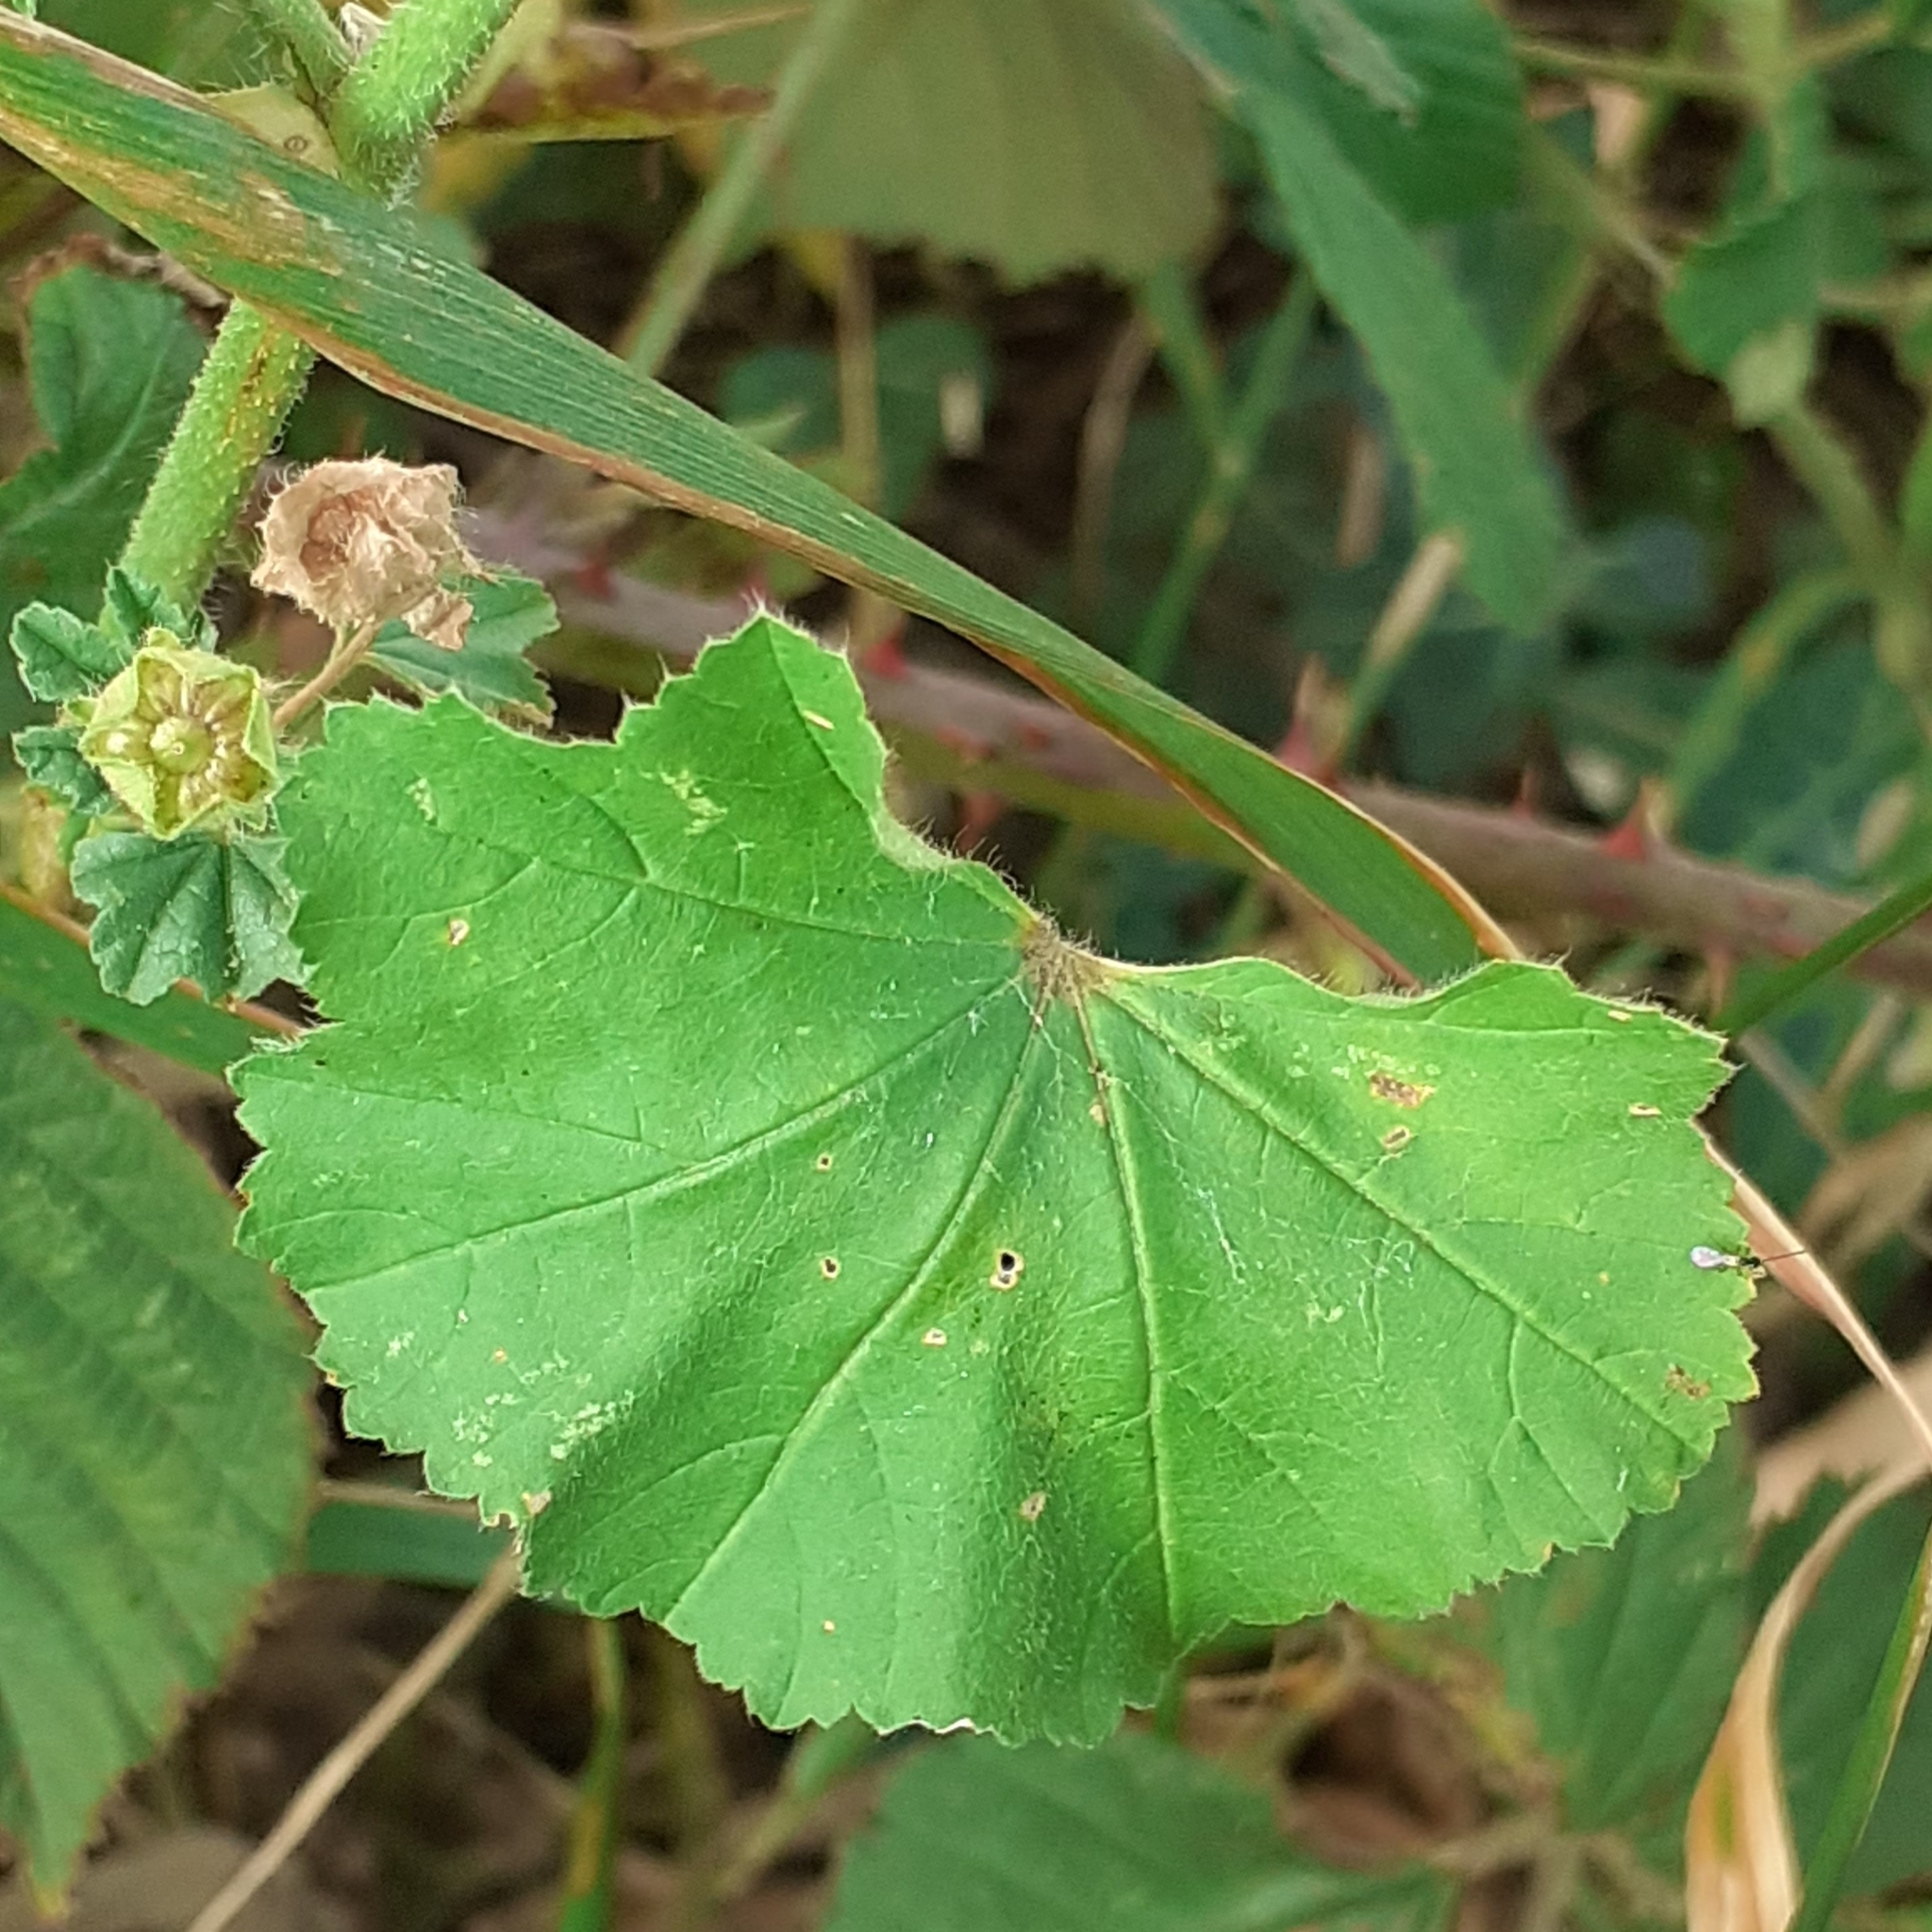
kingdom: Plantae
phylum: Tracheophyta
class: Magnoliopsida
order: Malvales
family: Malvaceae
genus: Malva
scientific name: Malva sylvestris
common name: Common mallow
